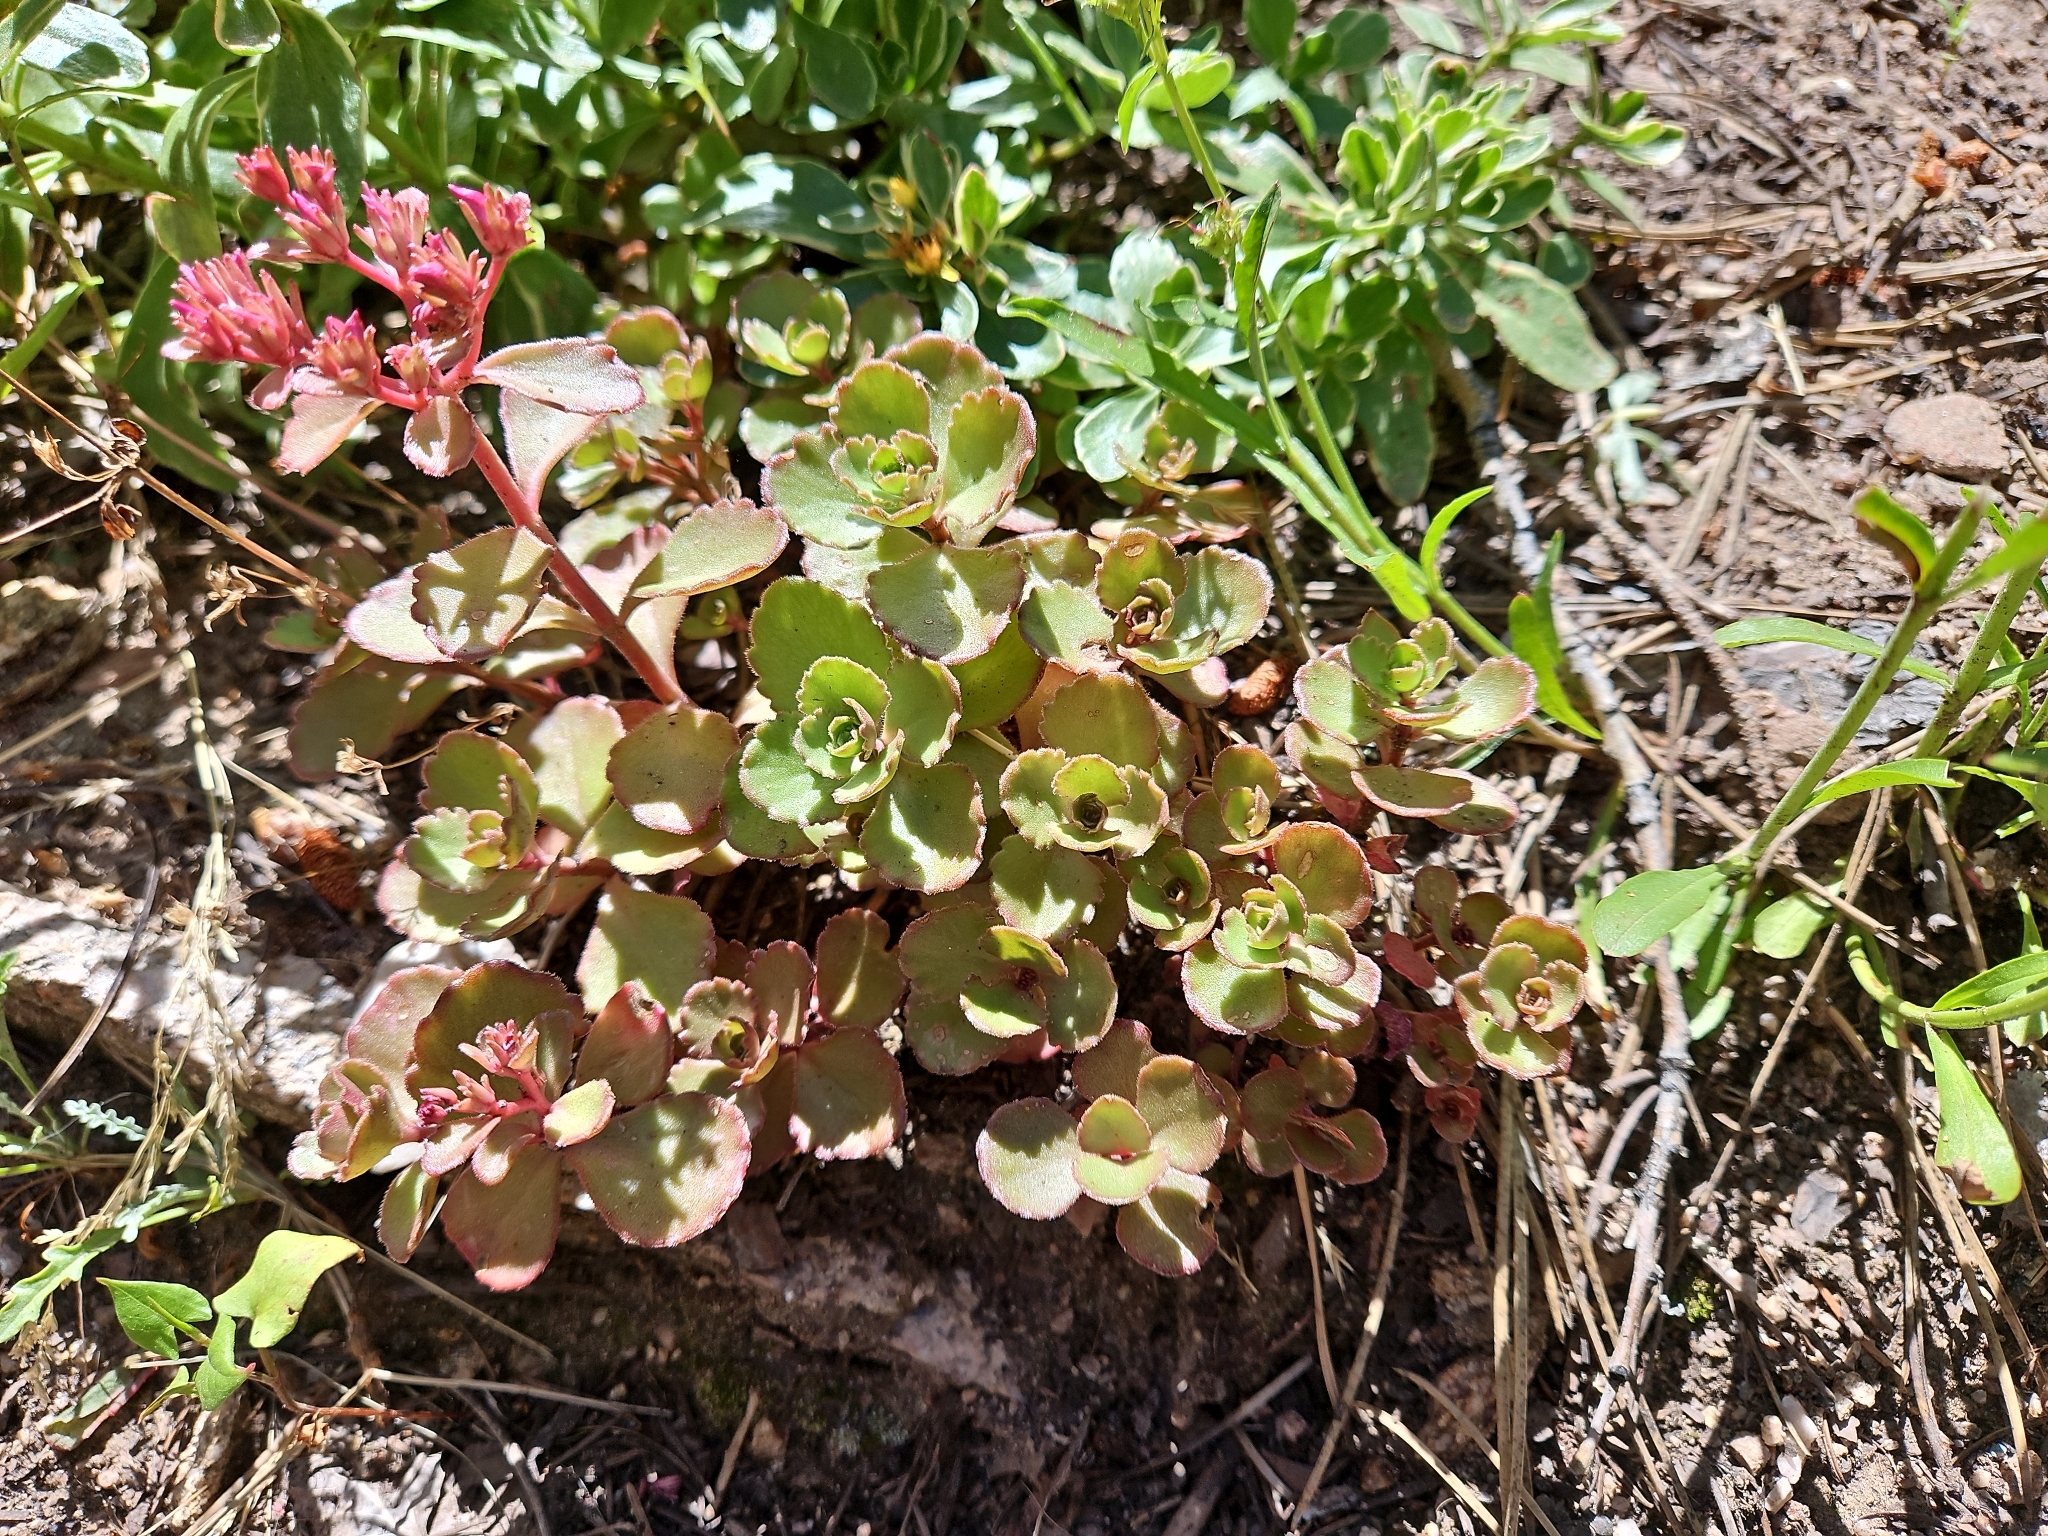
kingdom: Plantae
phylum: Tracheophyta
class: Magnoliopsida
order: Saxifragales
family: Crassulaceae
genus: Phedimus
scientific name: Phedimus spurius
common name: Caucasian stonecrop
